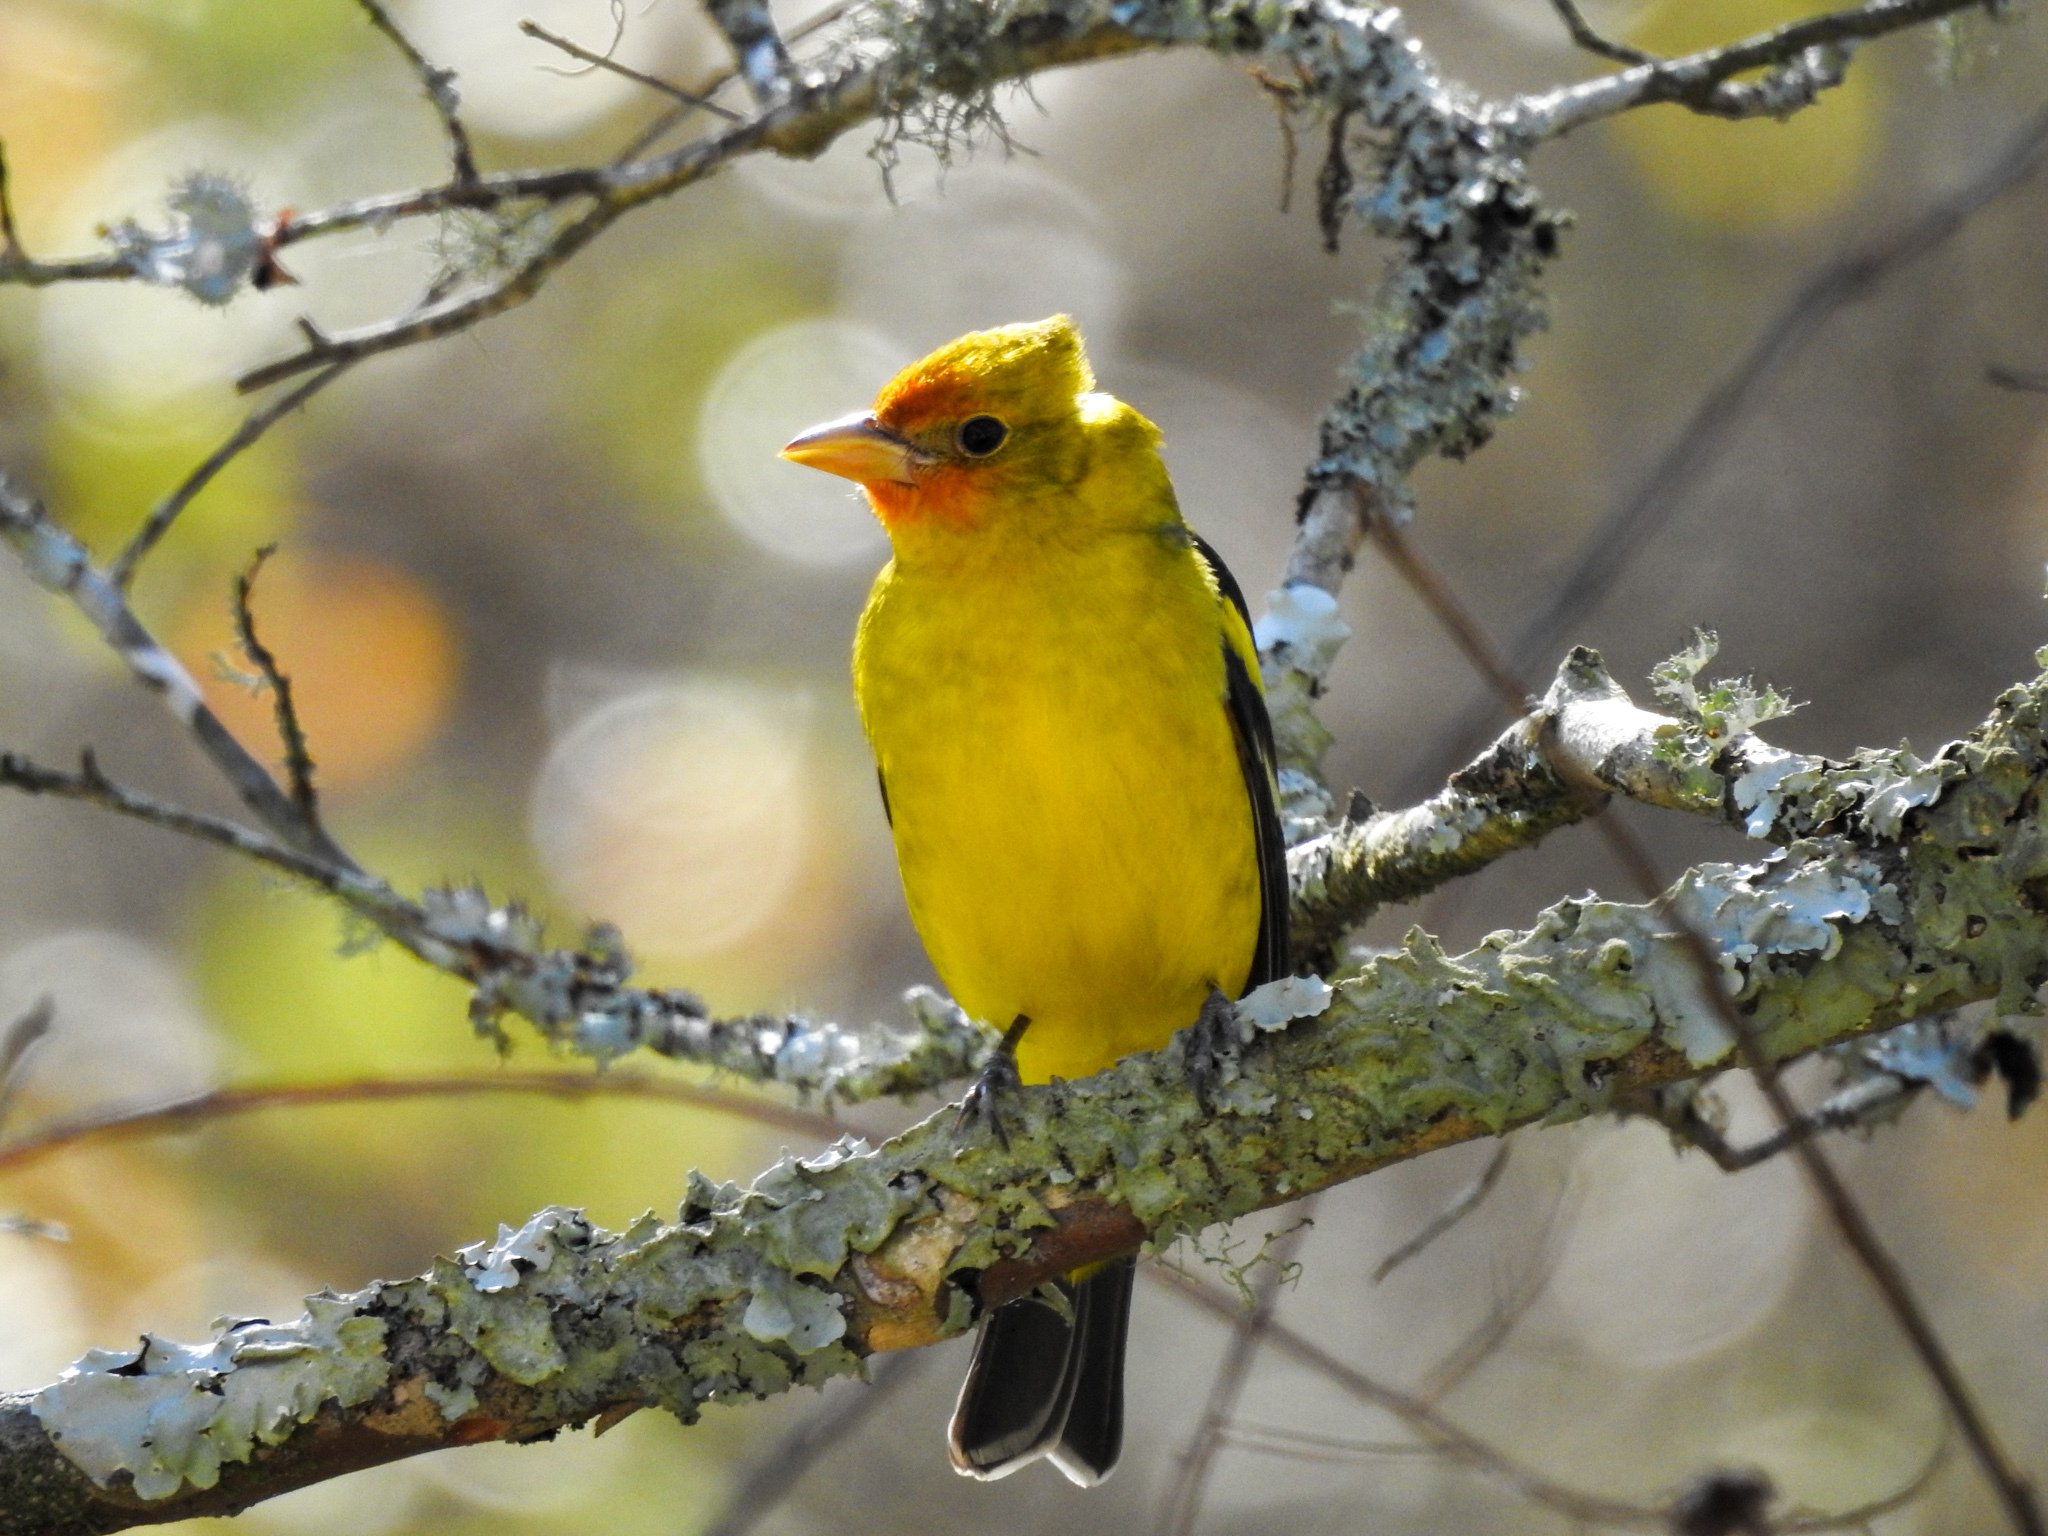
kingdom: Animalia
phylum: Chordata
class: Aves
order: Passeriformes
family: Cardinalidae
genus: Piranga
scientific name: Piranga ludoviciana
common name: Western tanager
